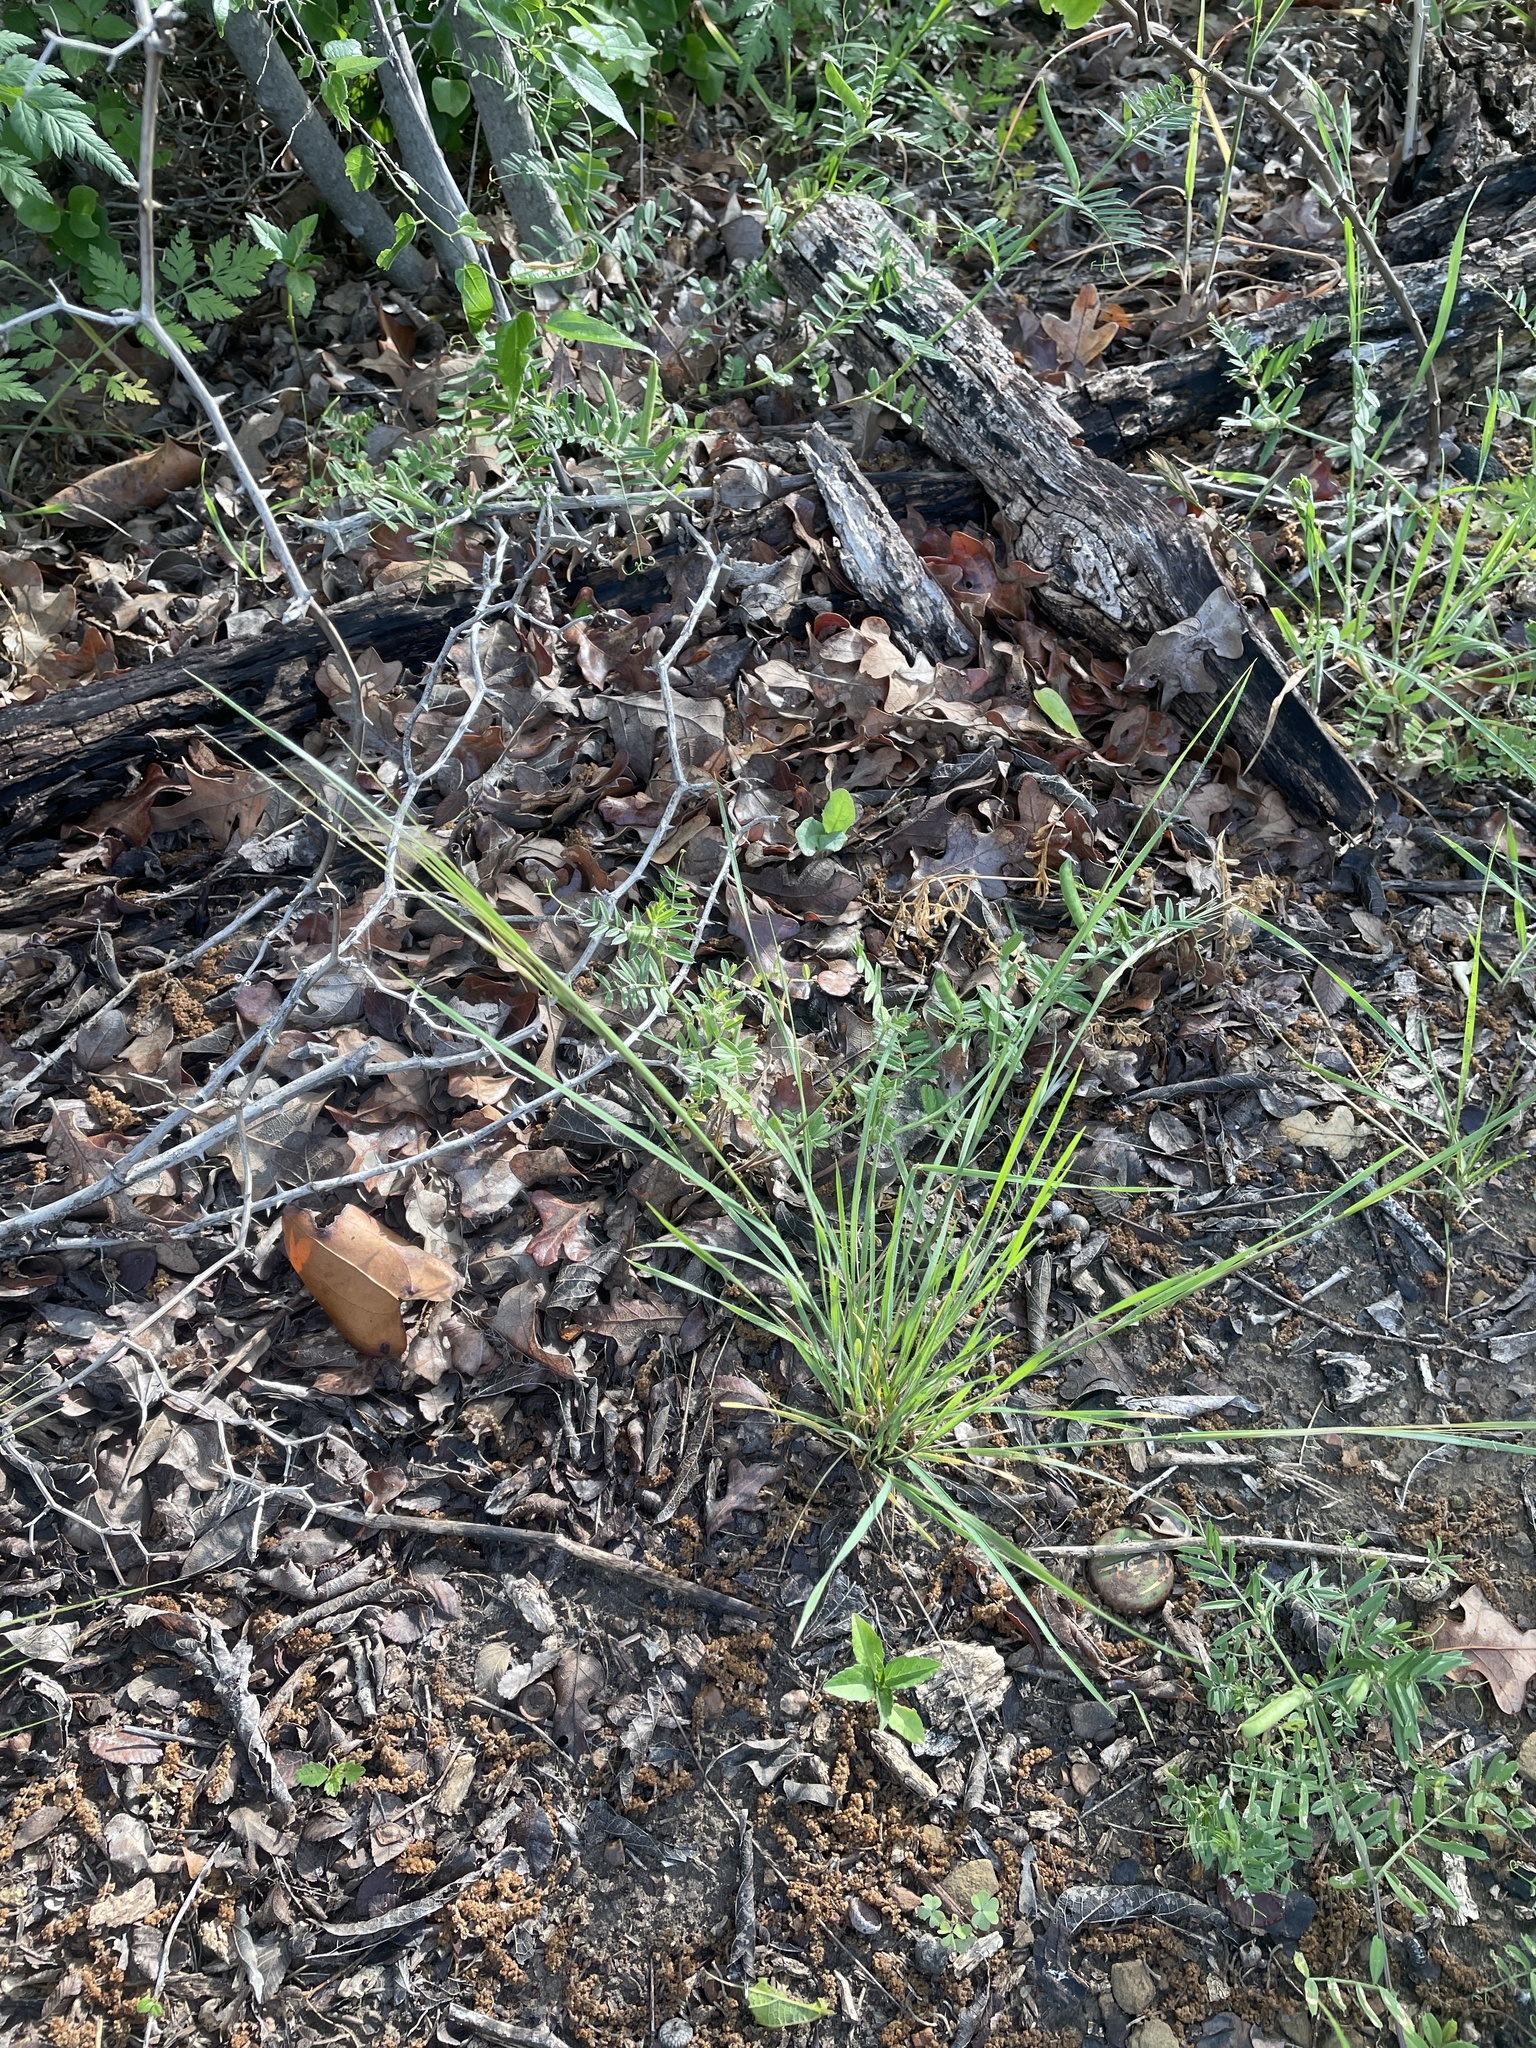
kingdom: Plantae
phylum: Tracheophyta
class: Liliopsida
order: Poales
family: Poaceae
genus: Nassella
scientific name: Nassella leucotricha
